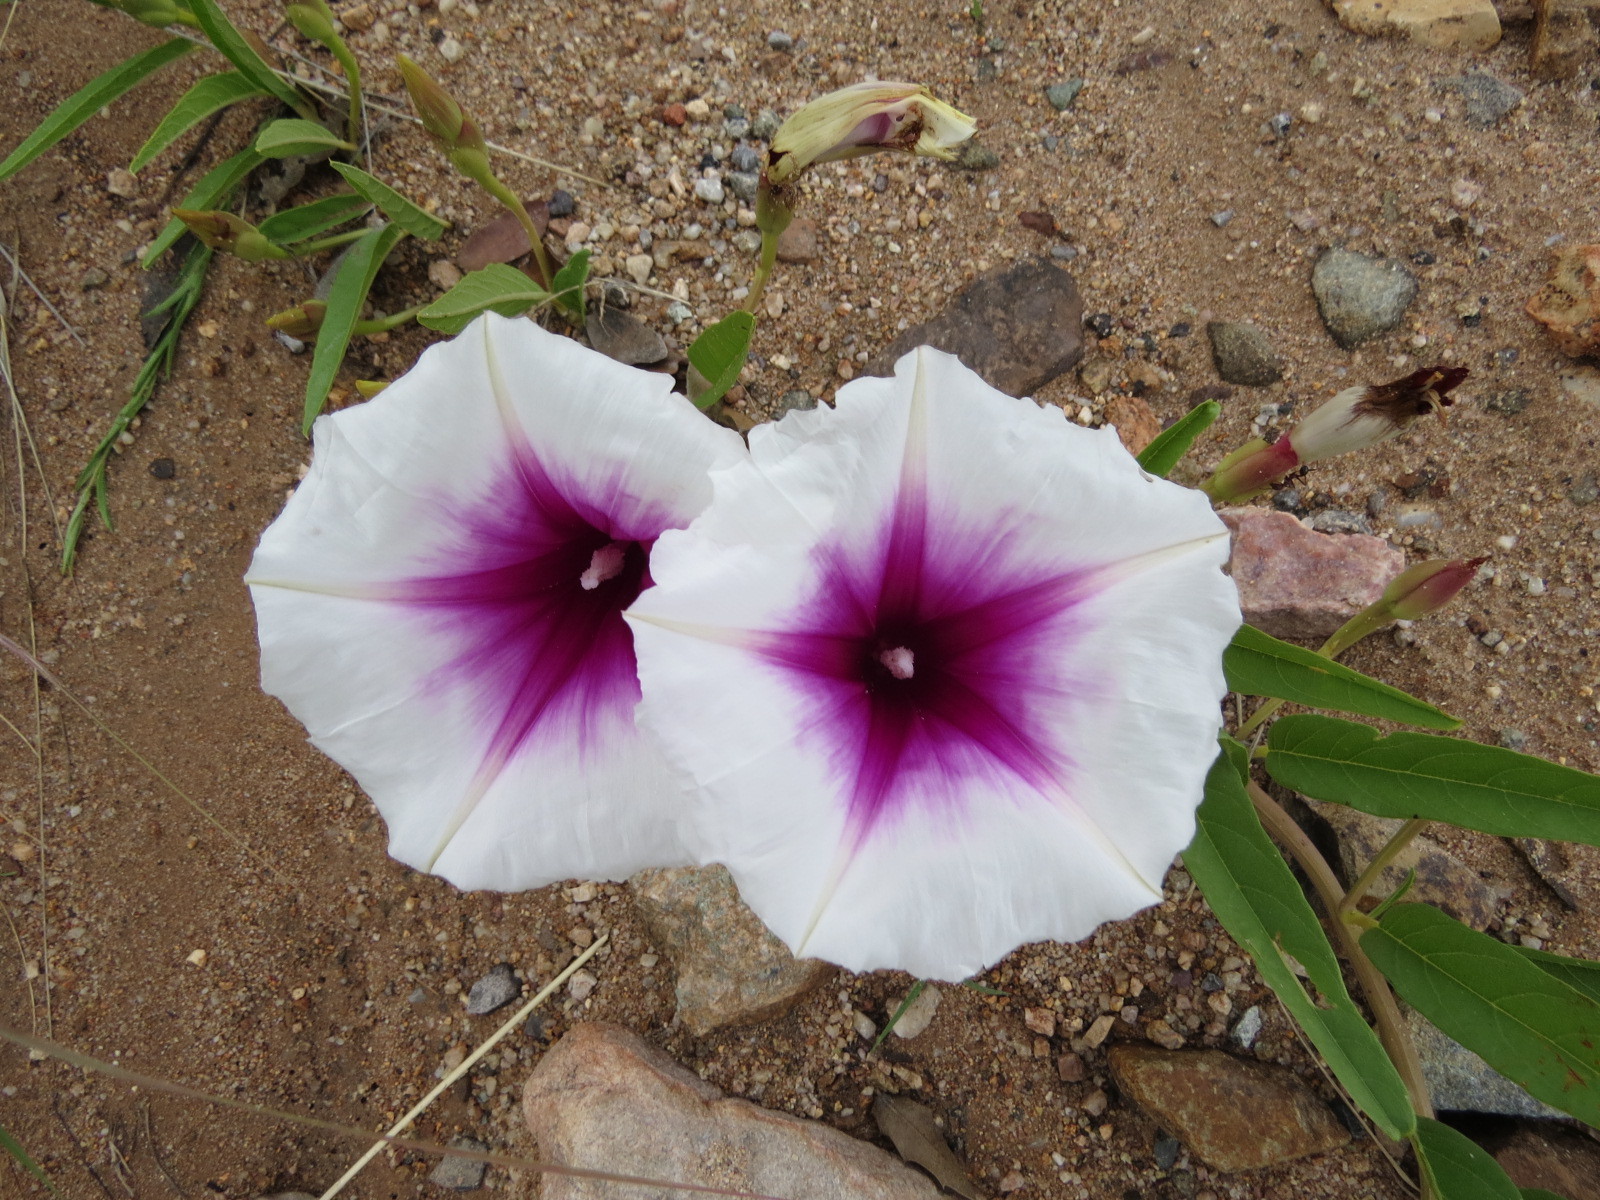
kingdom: Plantae
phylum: Tracheophyta
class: Magnoliopsida
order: Solanales
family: Convolvulaceae
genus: Ipomoea
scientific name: Ipomoea longifolia
